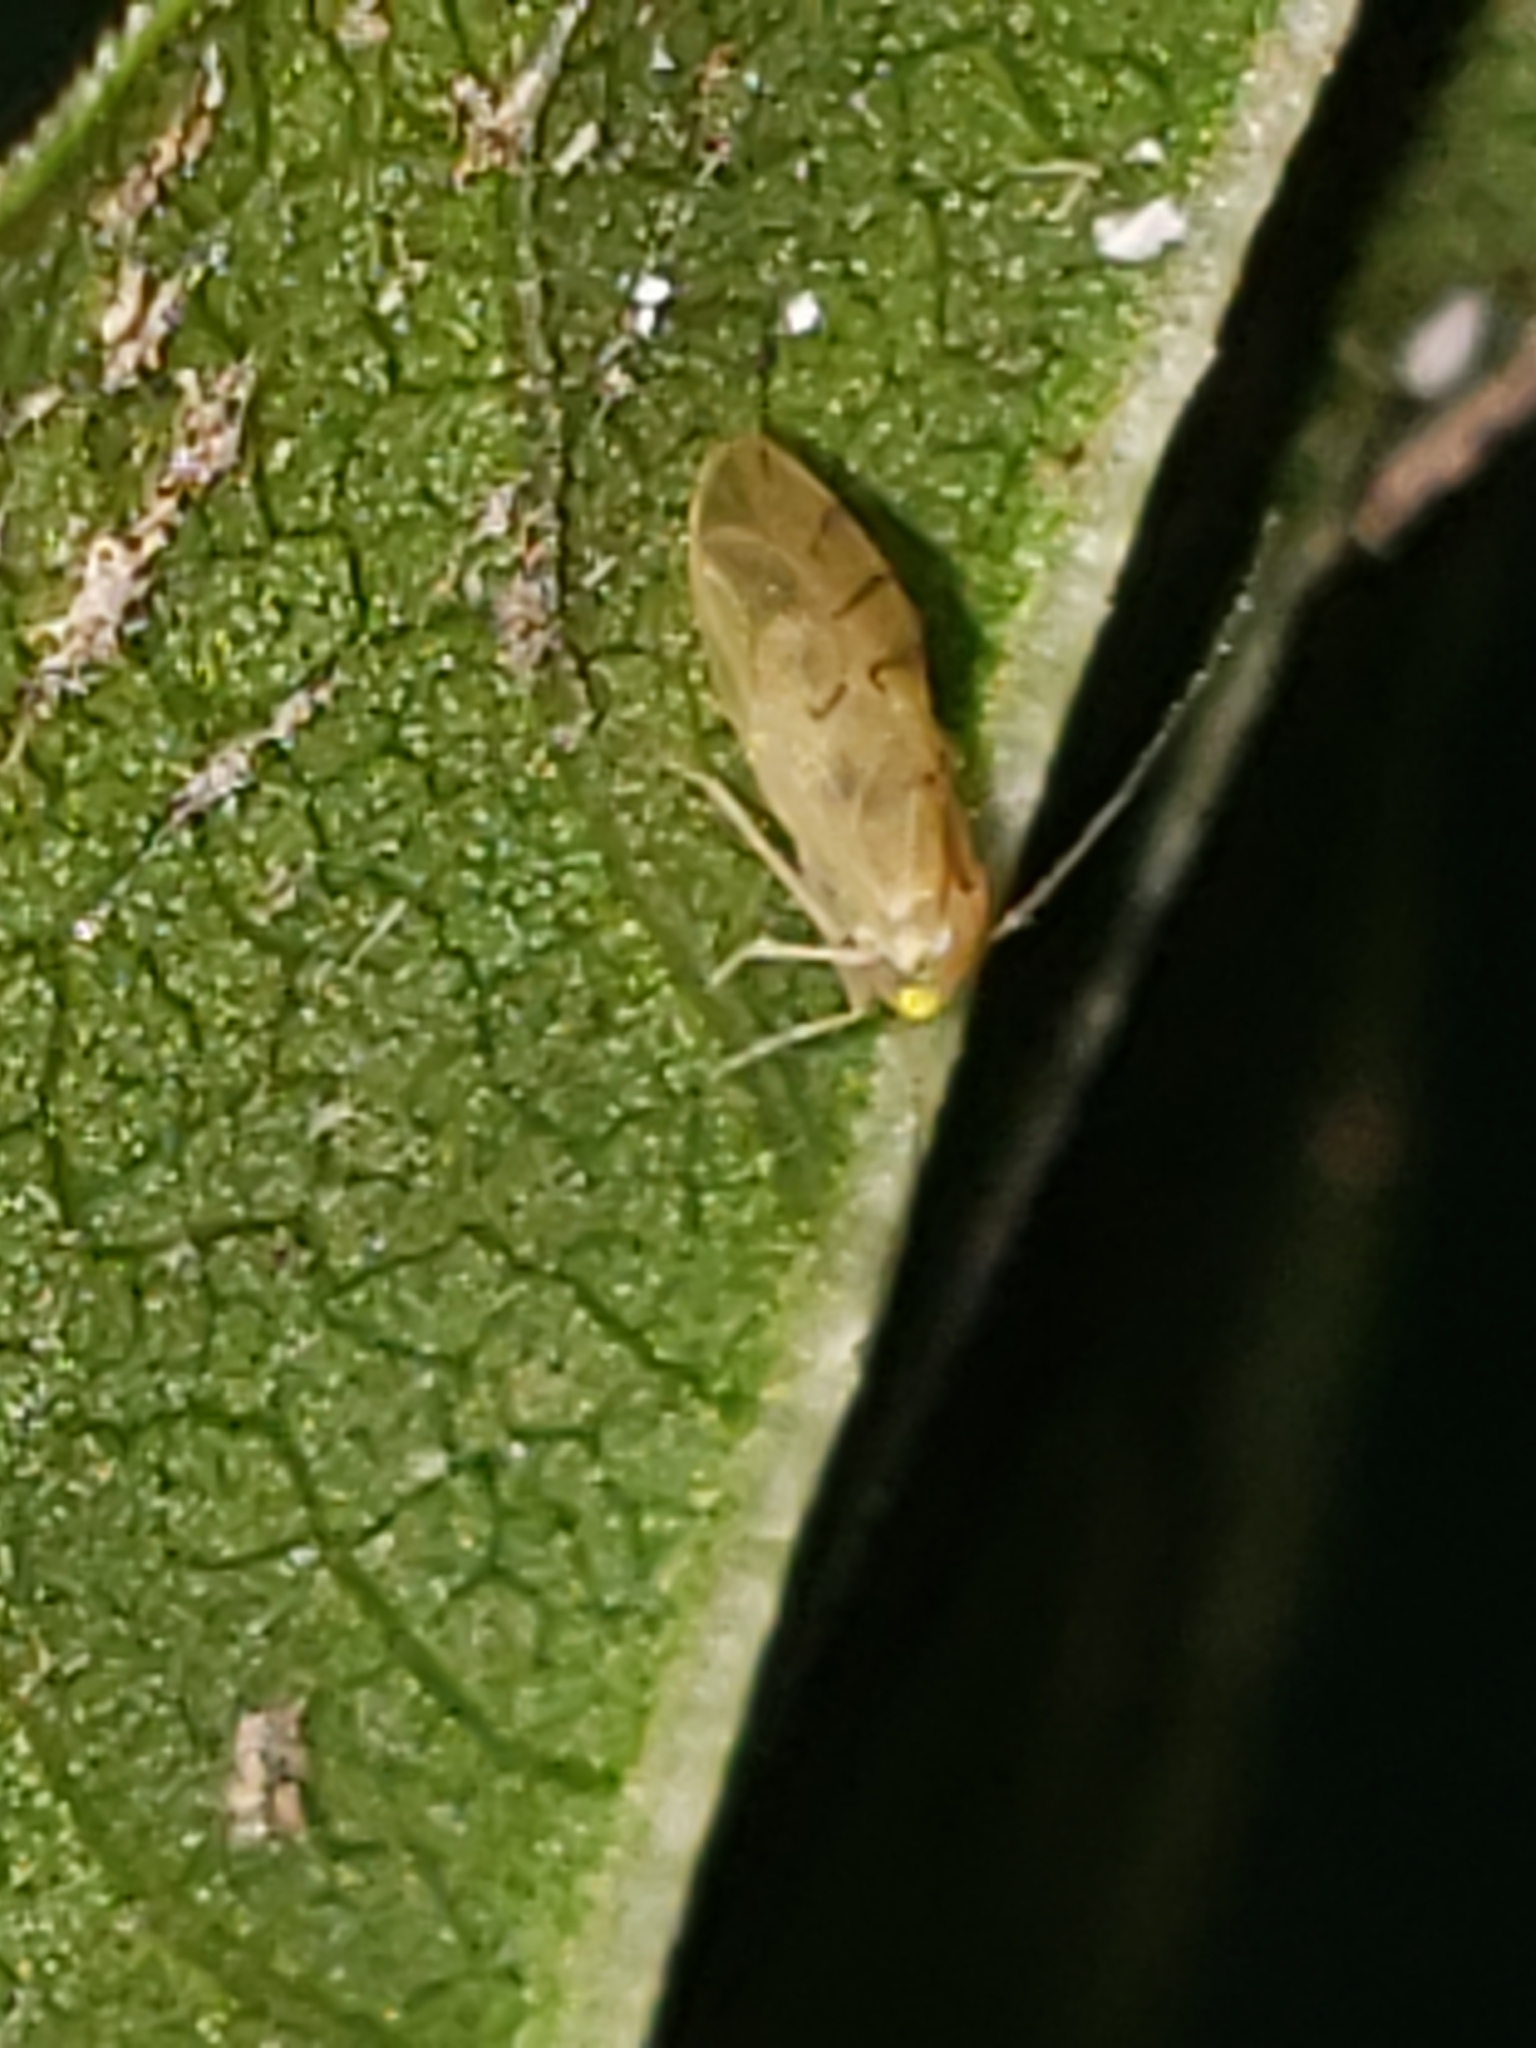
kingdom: Animalia
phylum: Arthropoda
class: Insecta
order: Psocodea
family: Paracaeciliidae
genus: Xanthocaecilius
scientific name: Xanthocaecilius sommermanae
